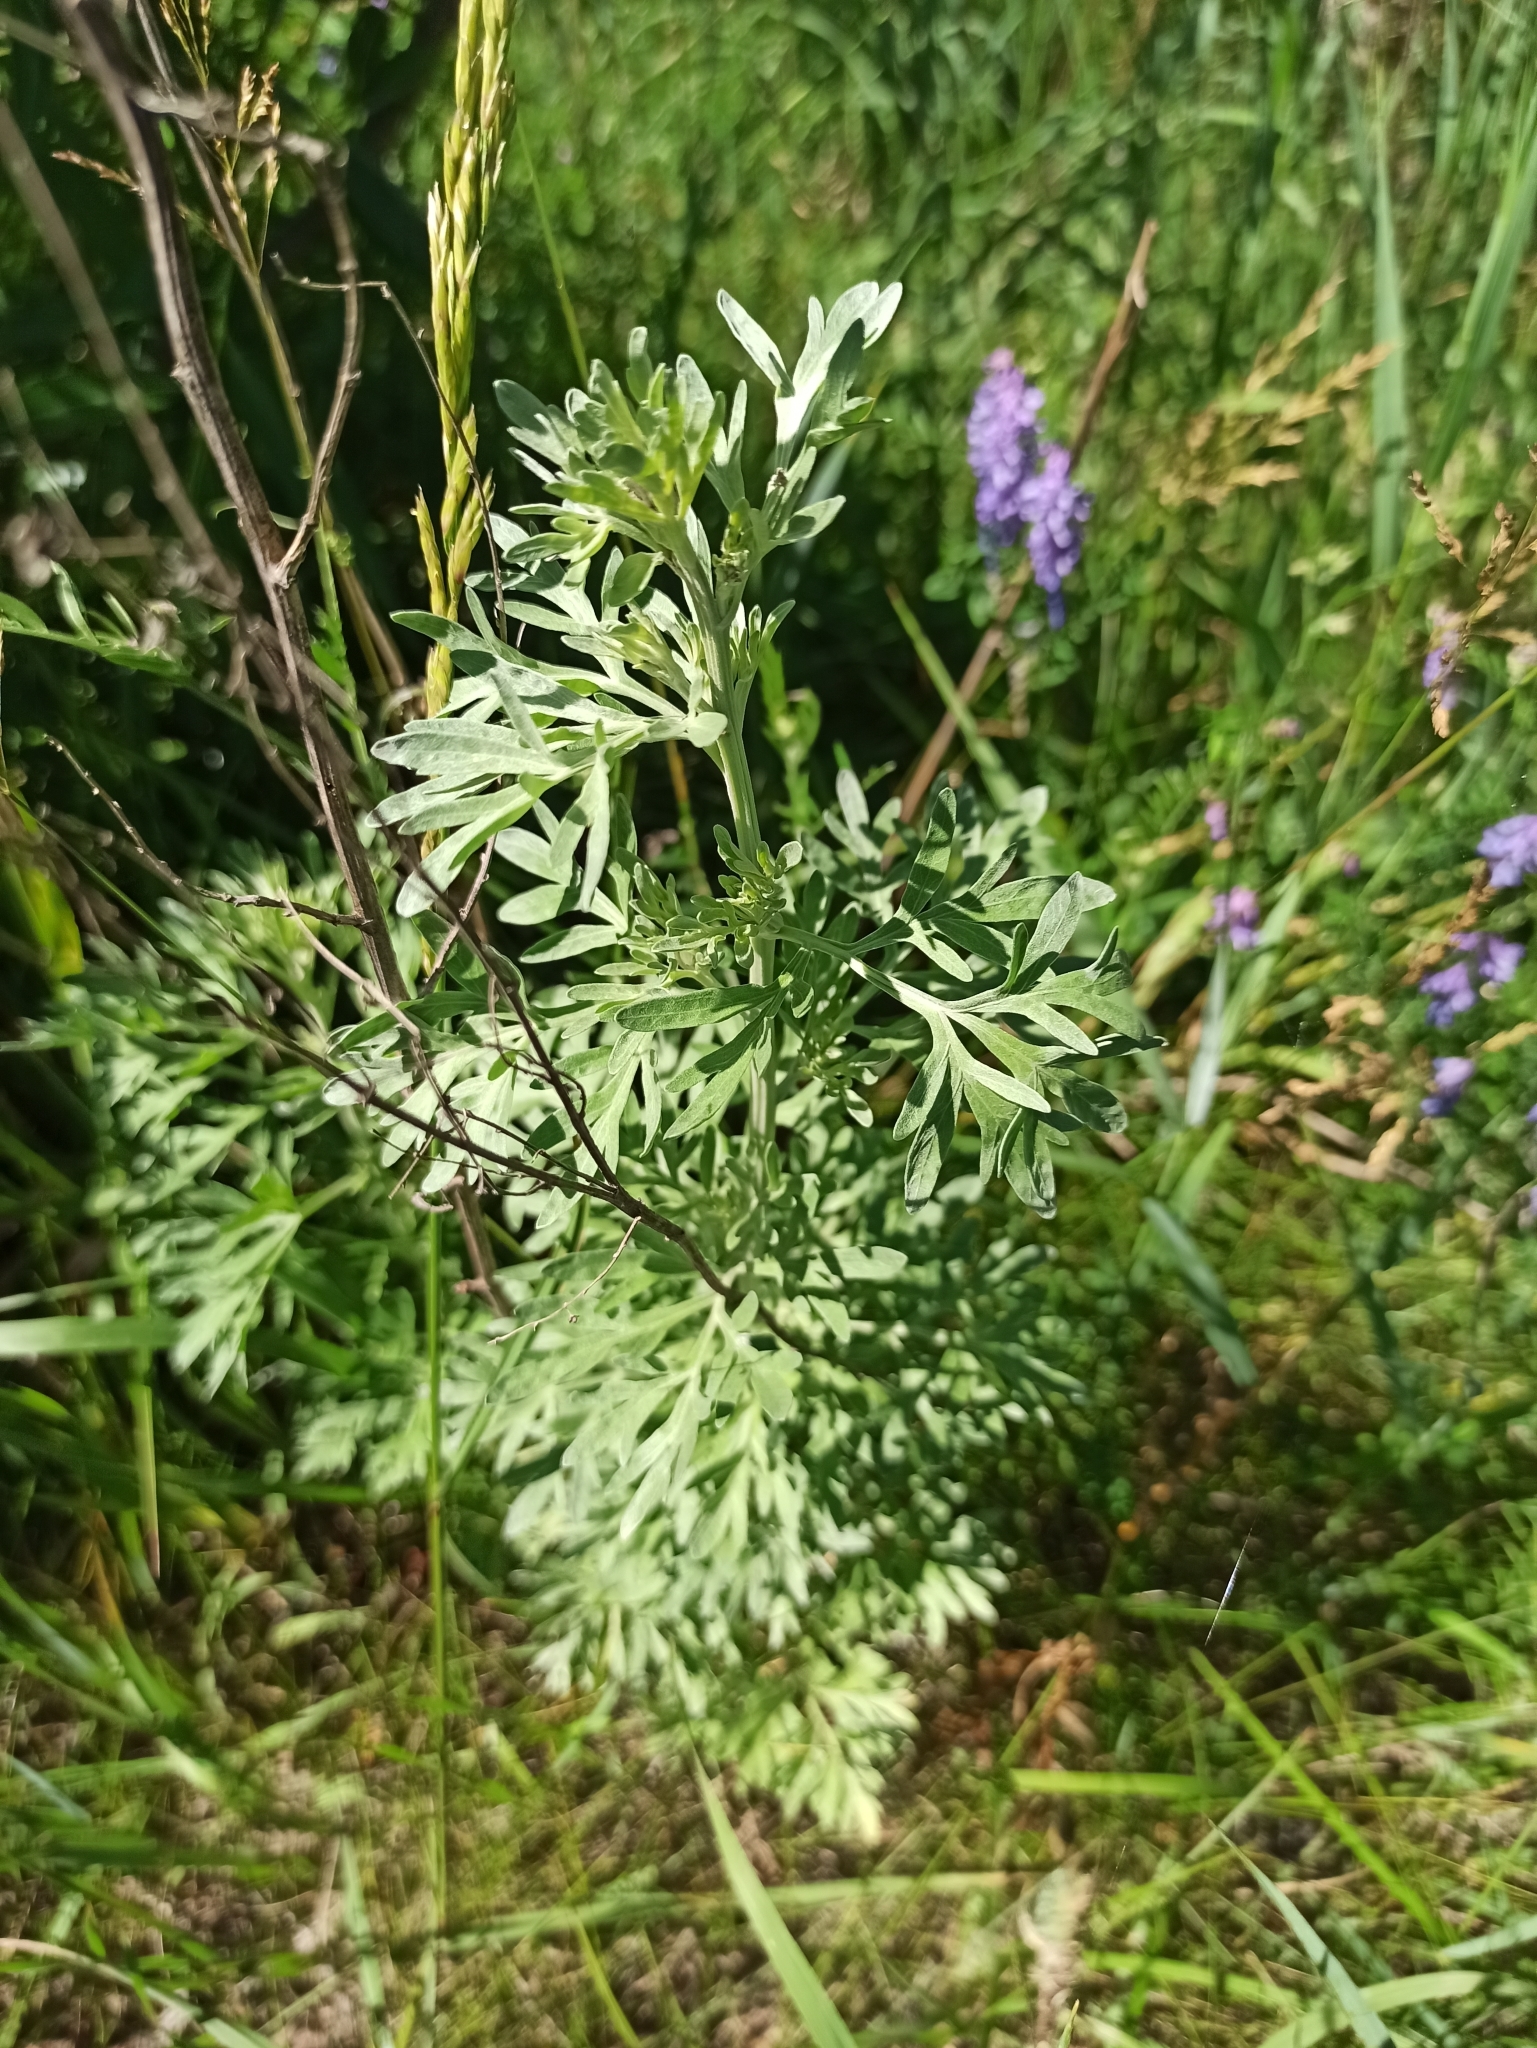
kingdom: Plantae
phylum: Tracheophyta
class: Magnoliopsida
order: Asterales
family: Asteraceae
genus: Artemisia
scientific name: Artemisia absinthium
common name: Wormwood
